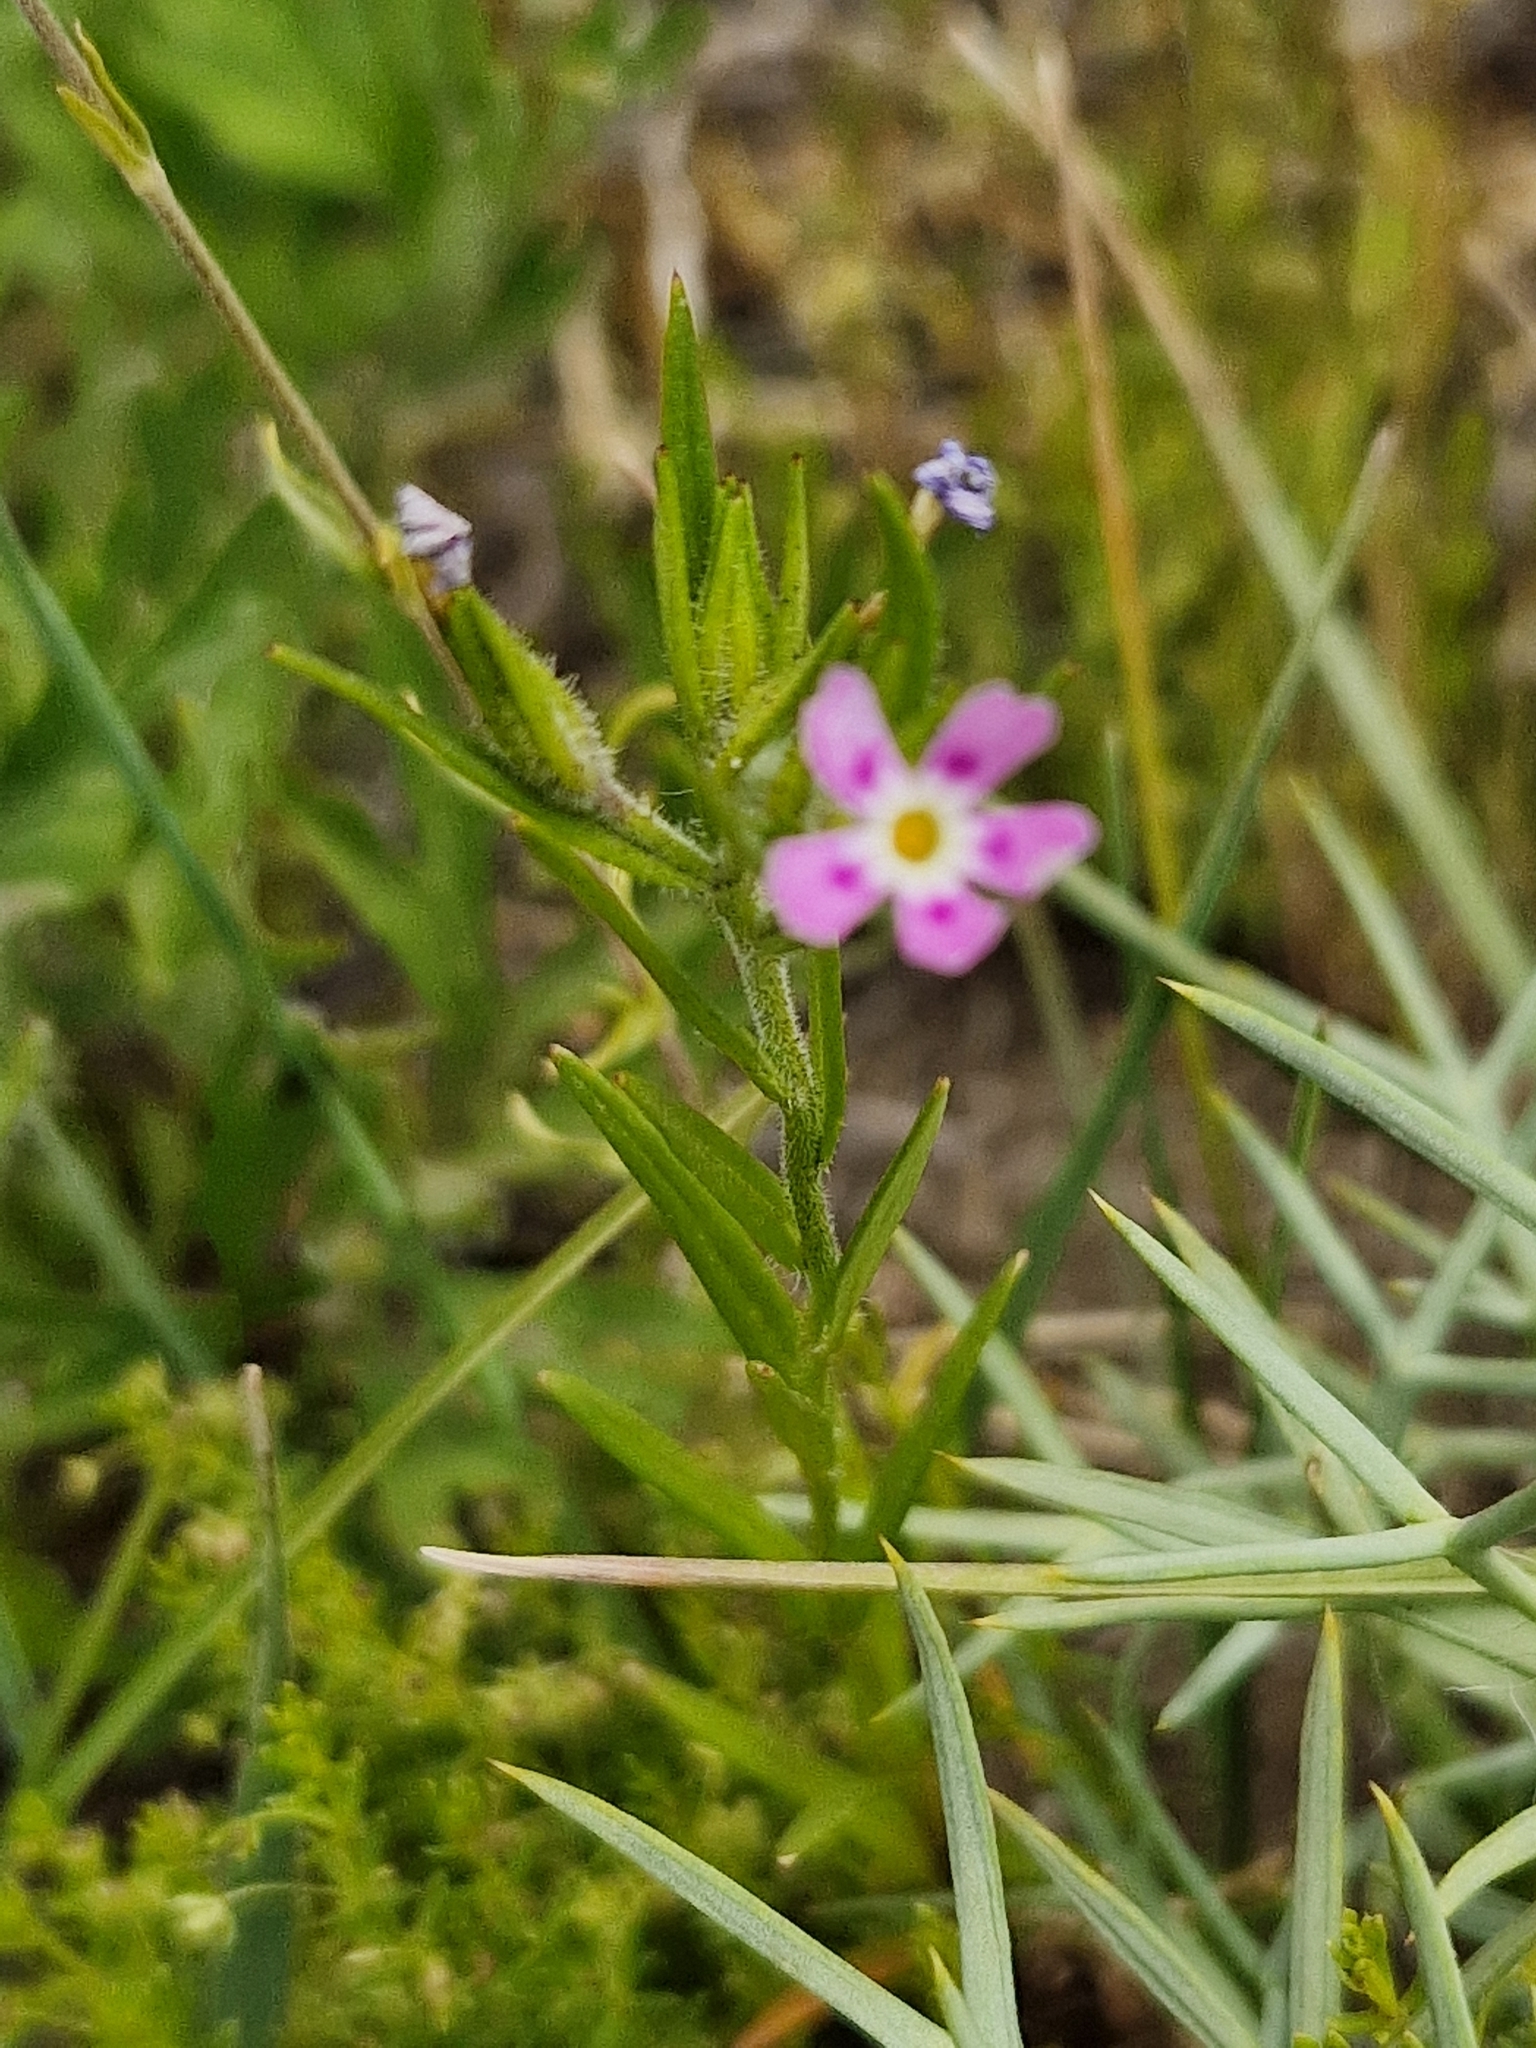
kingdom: Plantae
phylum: Tracheophyta
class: Magnoliopsida
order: Ericales
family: Polemoniaceae
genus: Phlox
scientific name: Phlox gracilis
